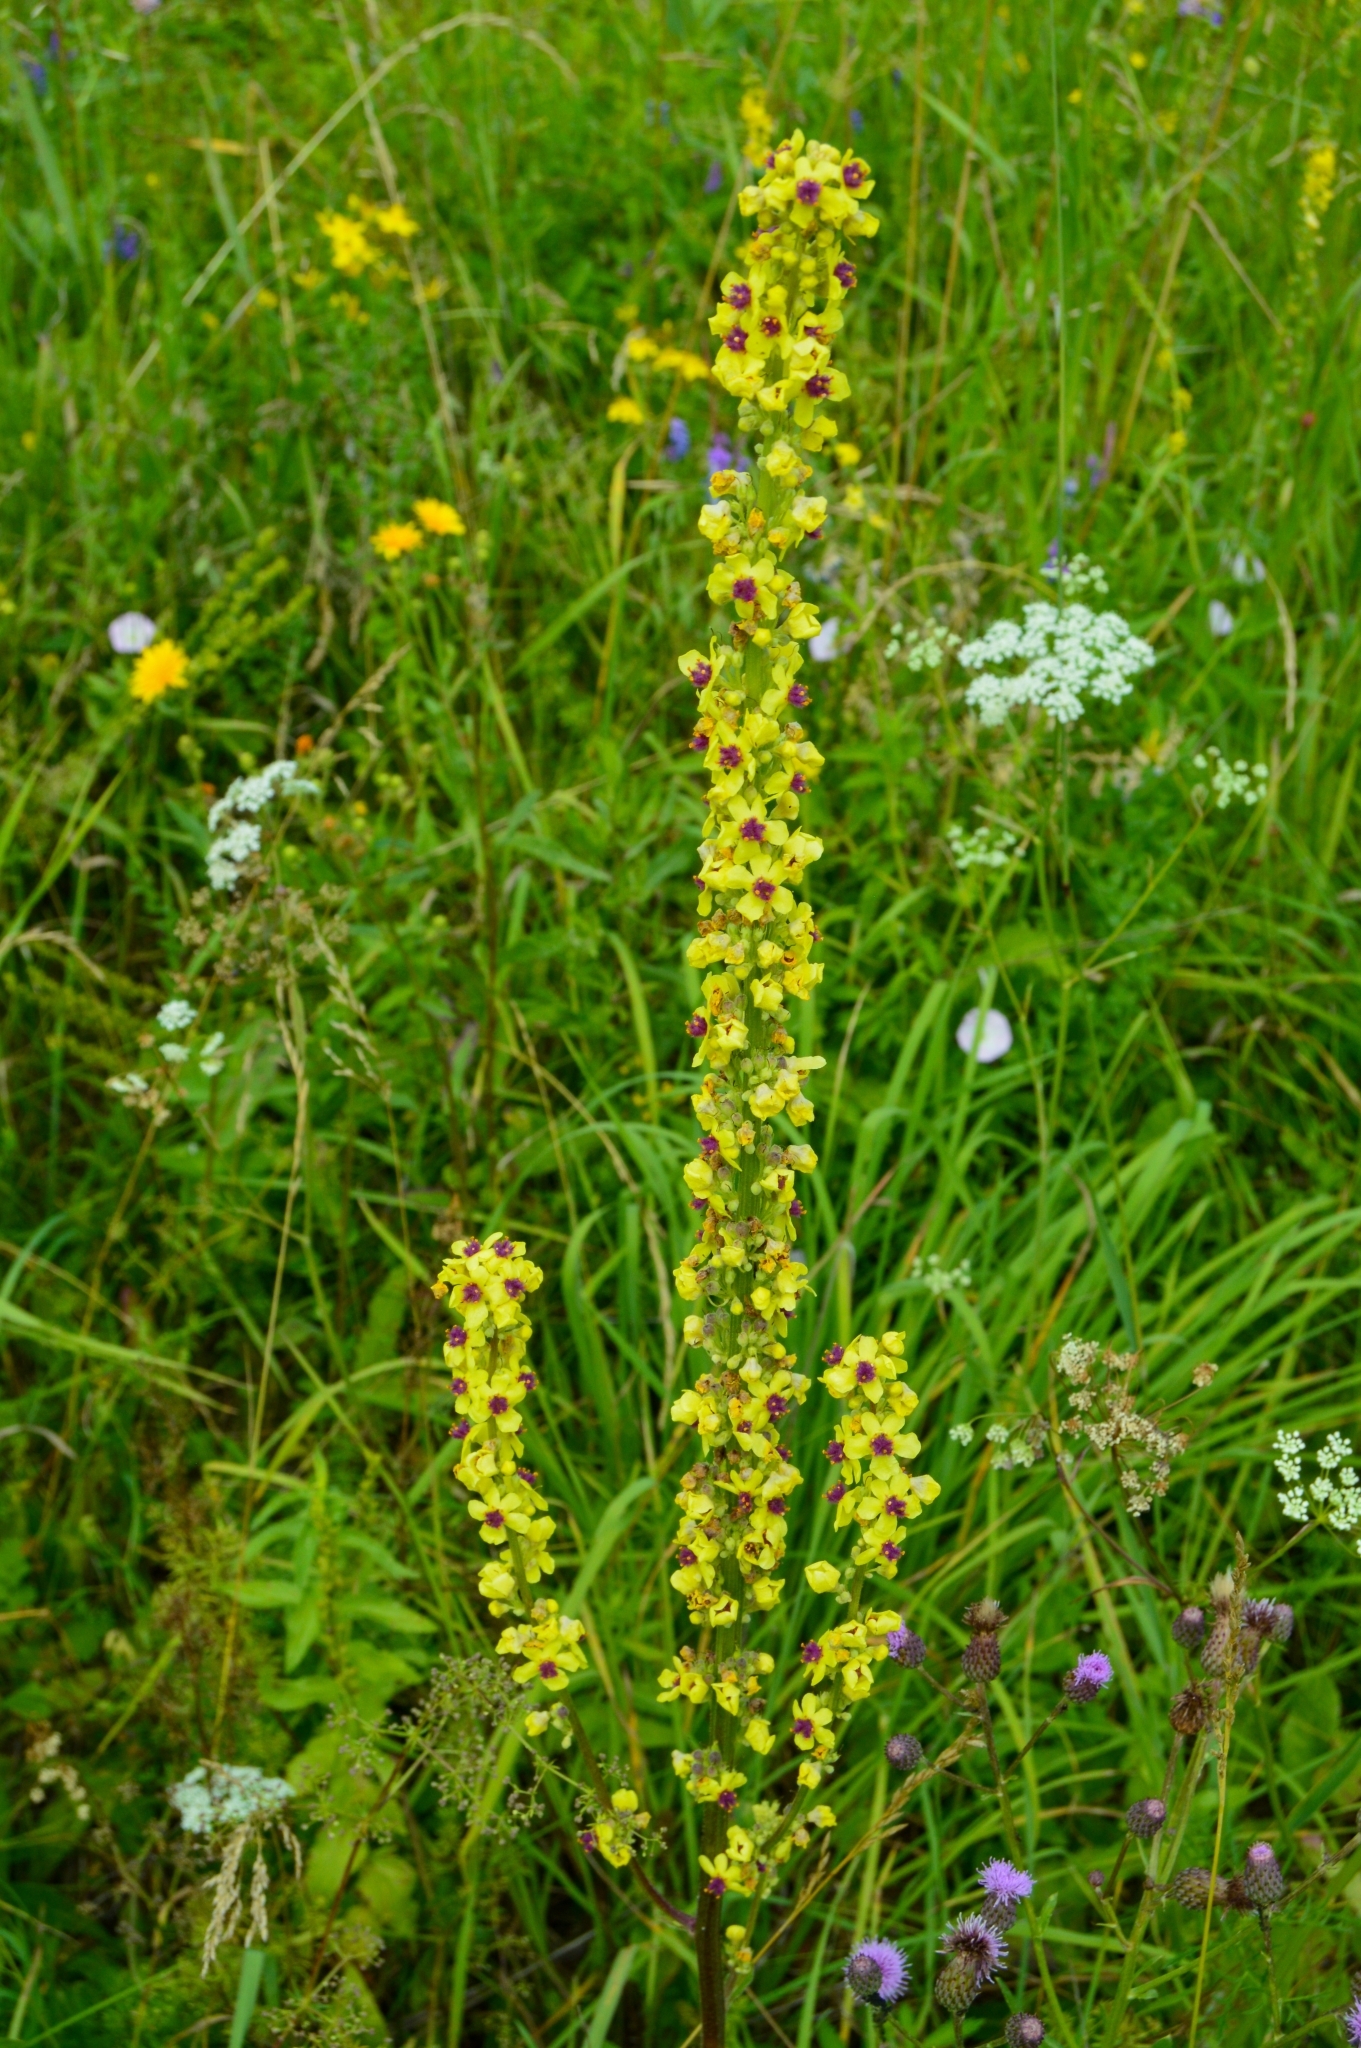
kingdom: Plantae
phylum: Tracheophyta
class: Magnoliopsida
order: Lamiales
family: Scrophulariaceae
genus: Verbascum
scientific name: Verbascum nigrum
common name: Dark mullein
